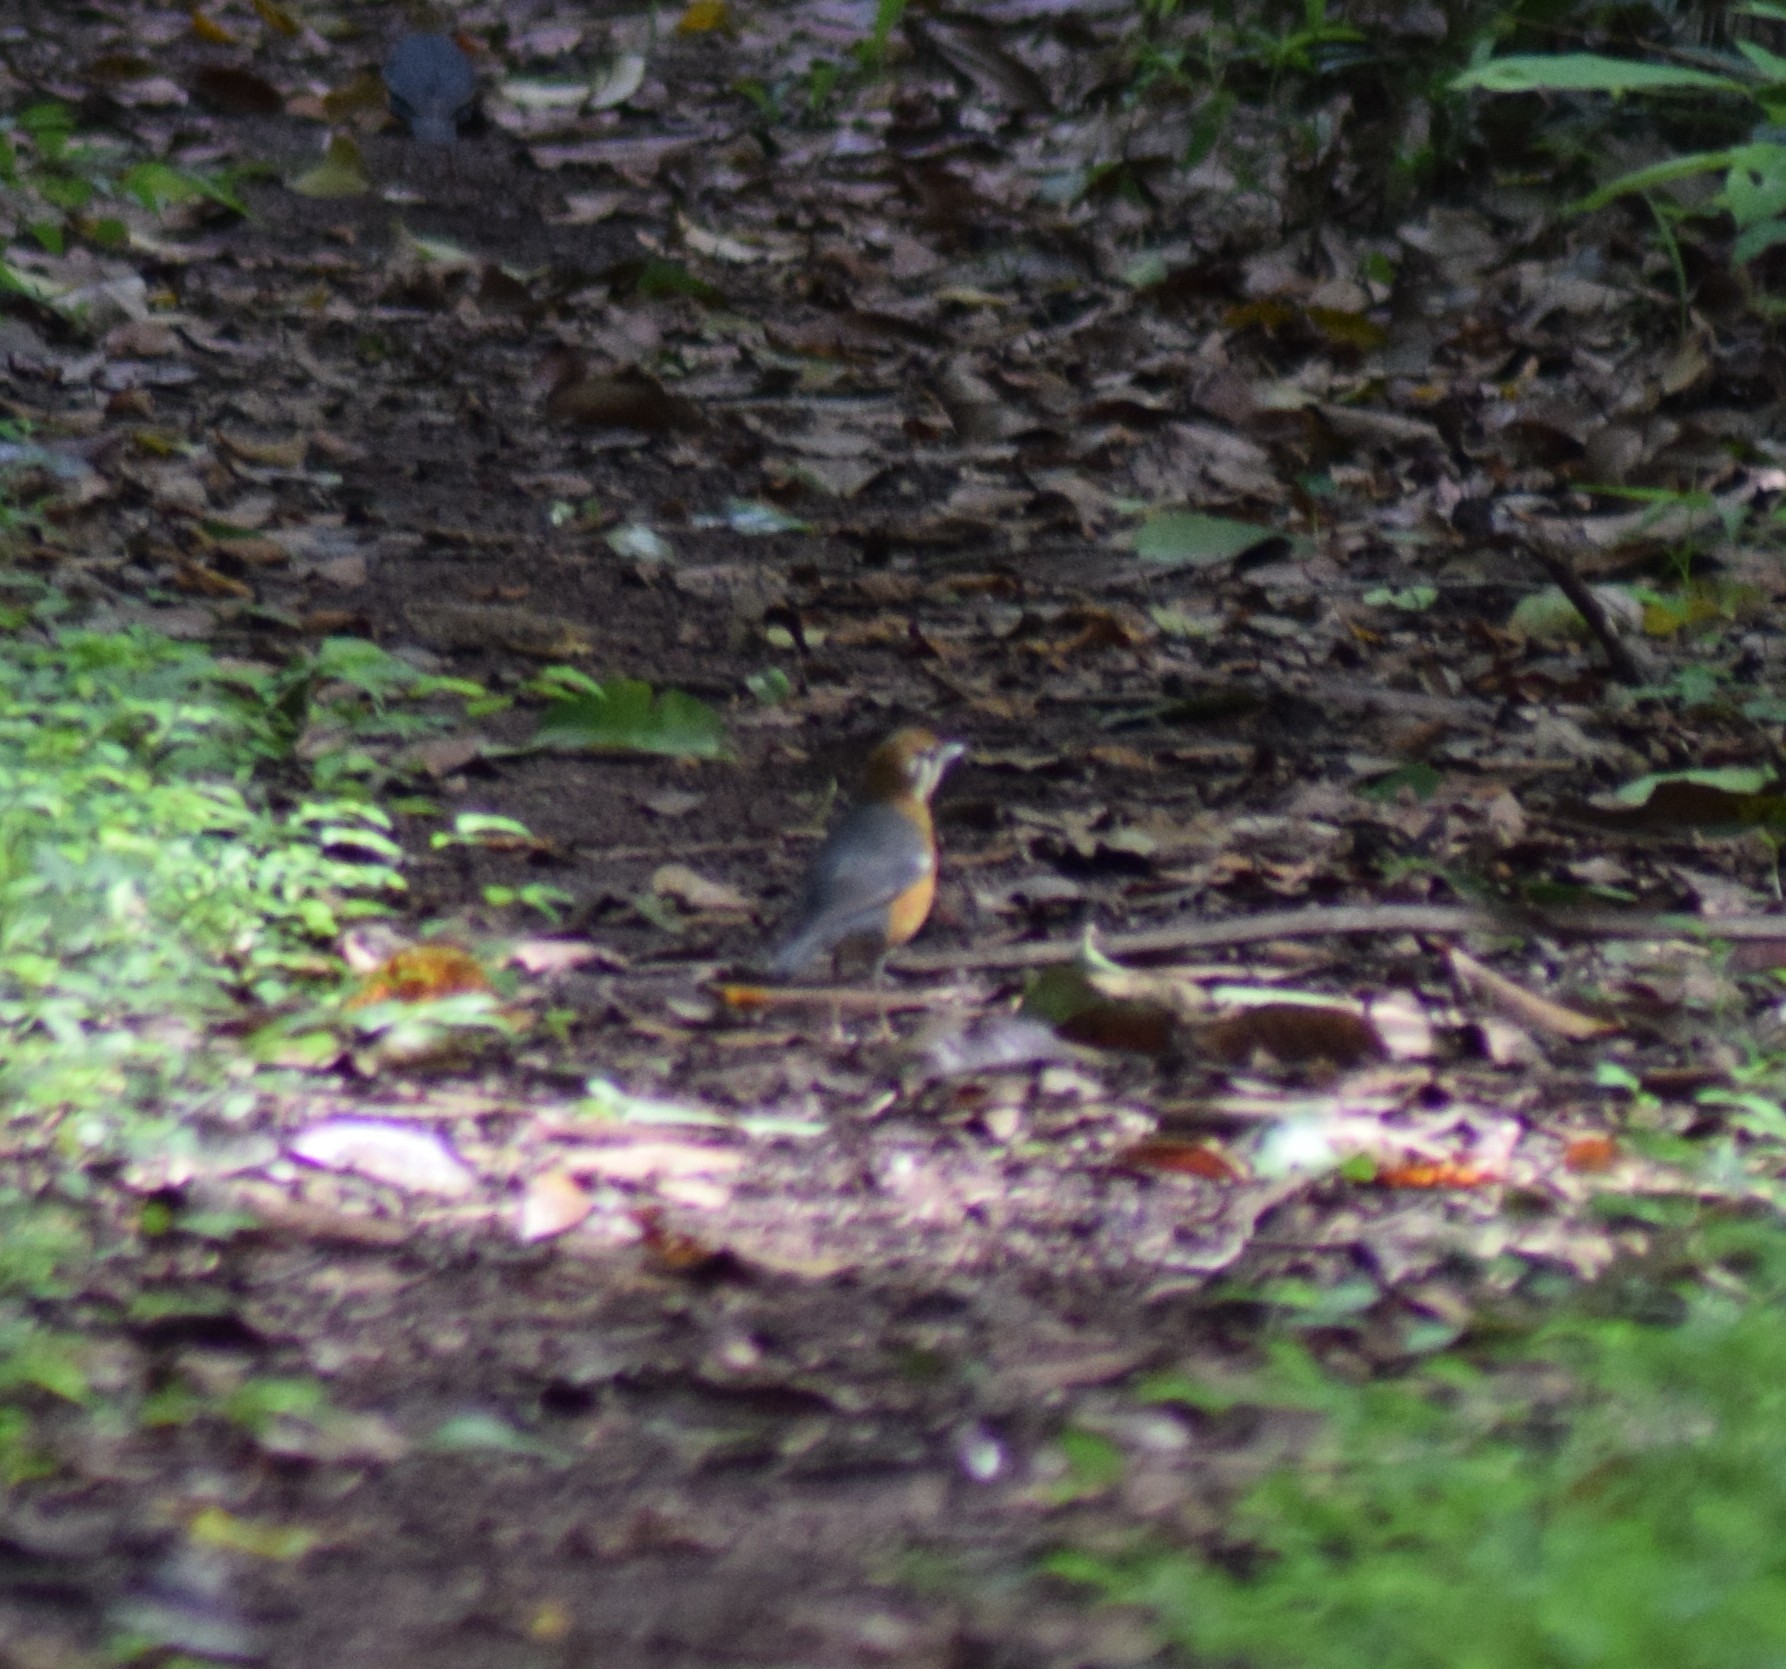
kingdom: Animalia
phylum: Chordata
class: Aves
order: Passeriformes
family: Turdidae
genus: Geokichla
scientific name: Geokichla citrina
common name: Orange-headed thrush
